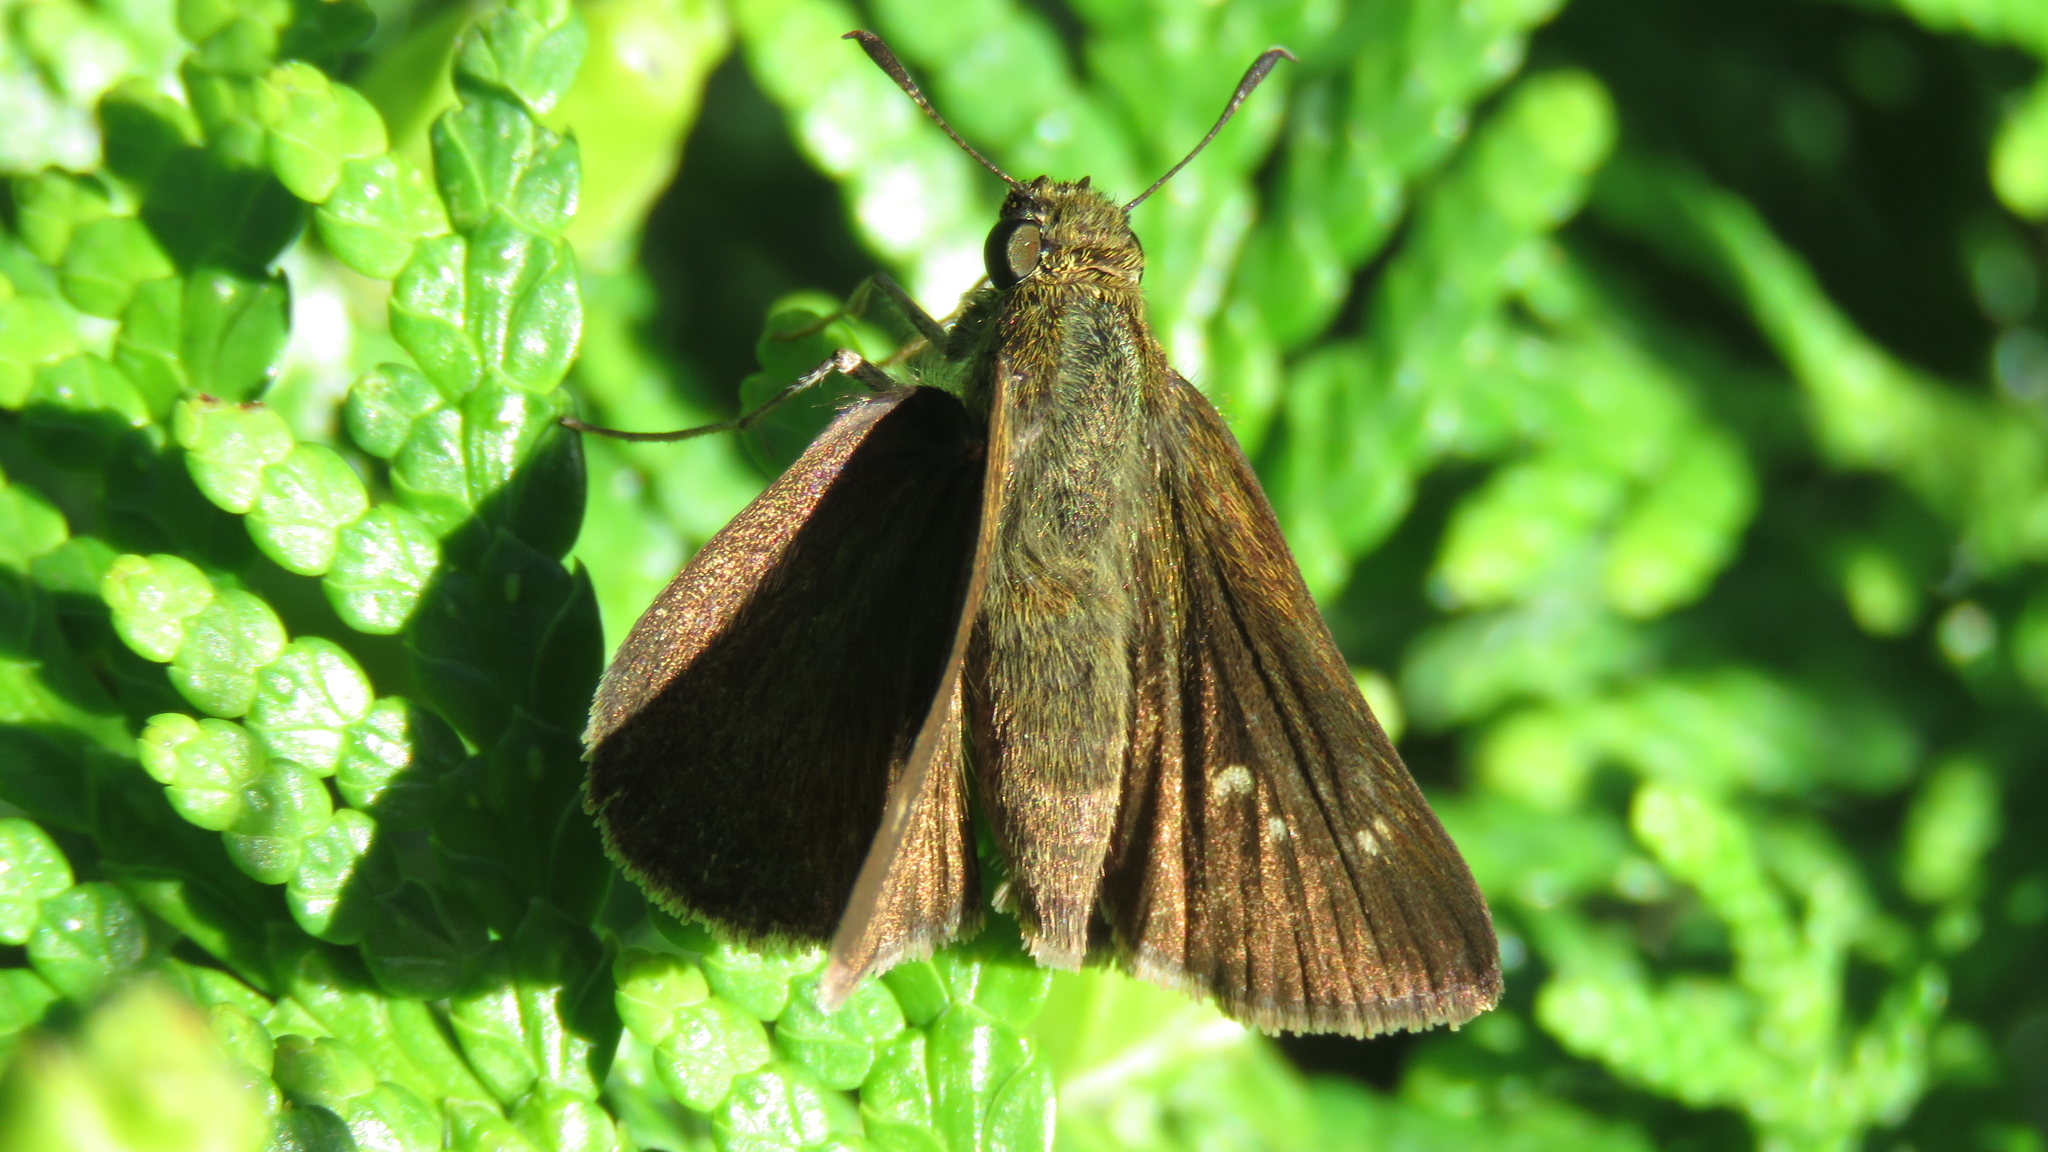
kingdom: Animalia
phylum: Arthropoda
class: Insecta
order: Lepidoptera
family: Hesperiidae
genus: Euphyes
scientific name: Euphyes vestris
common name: Dun skipper
